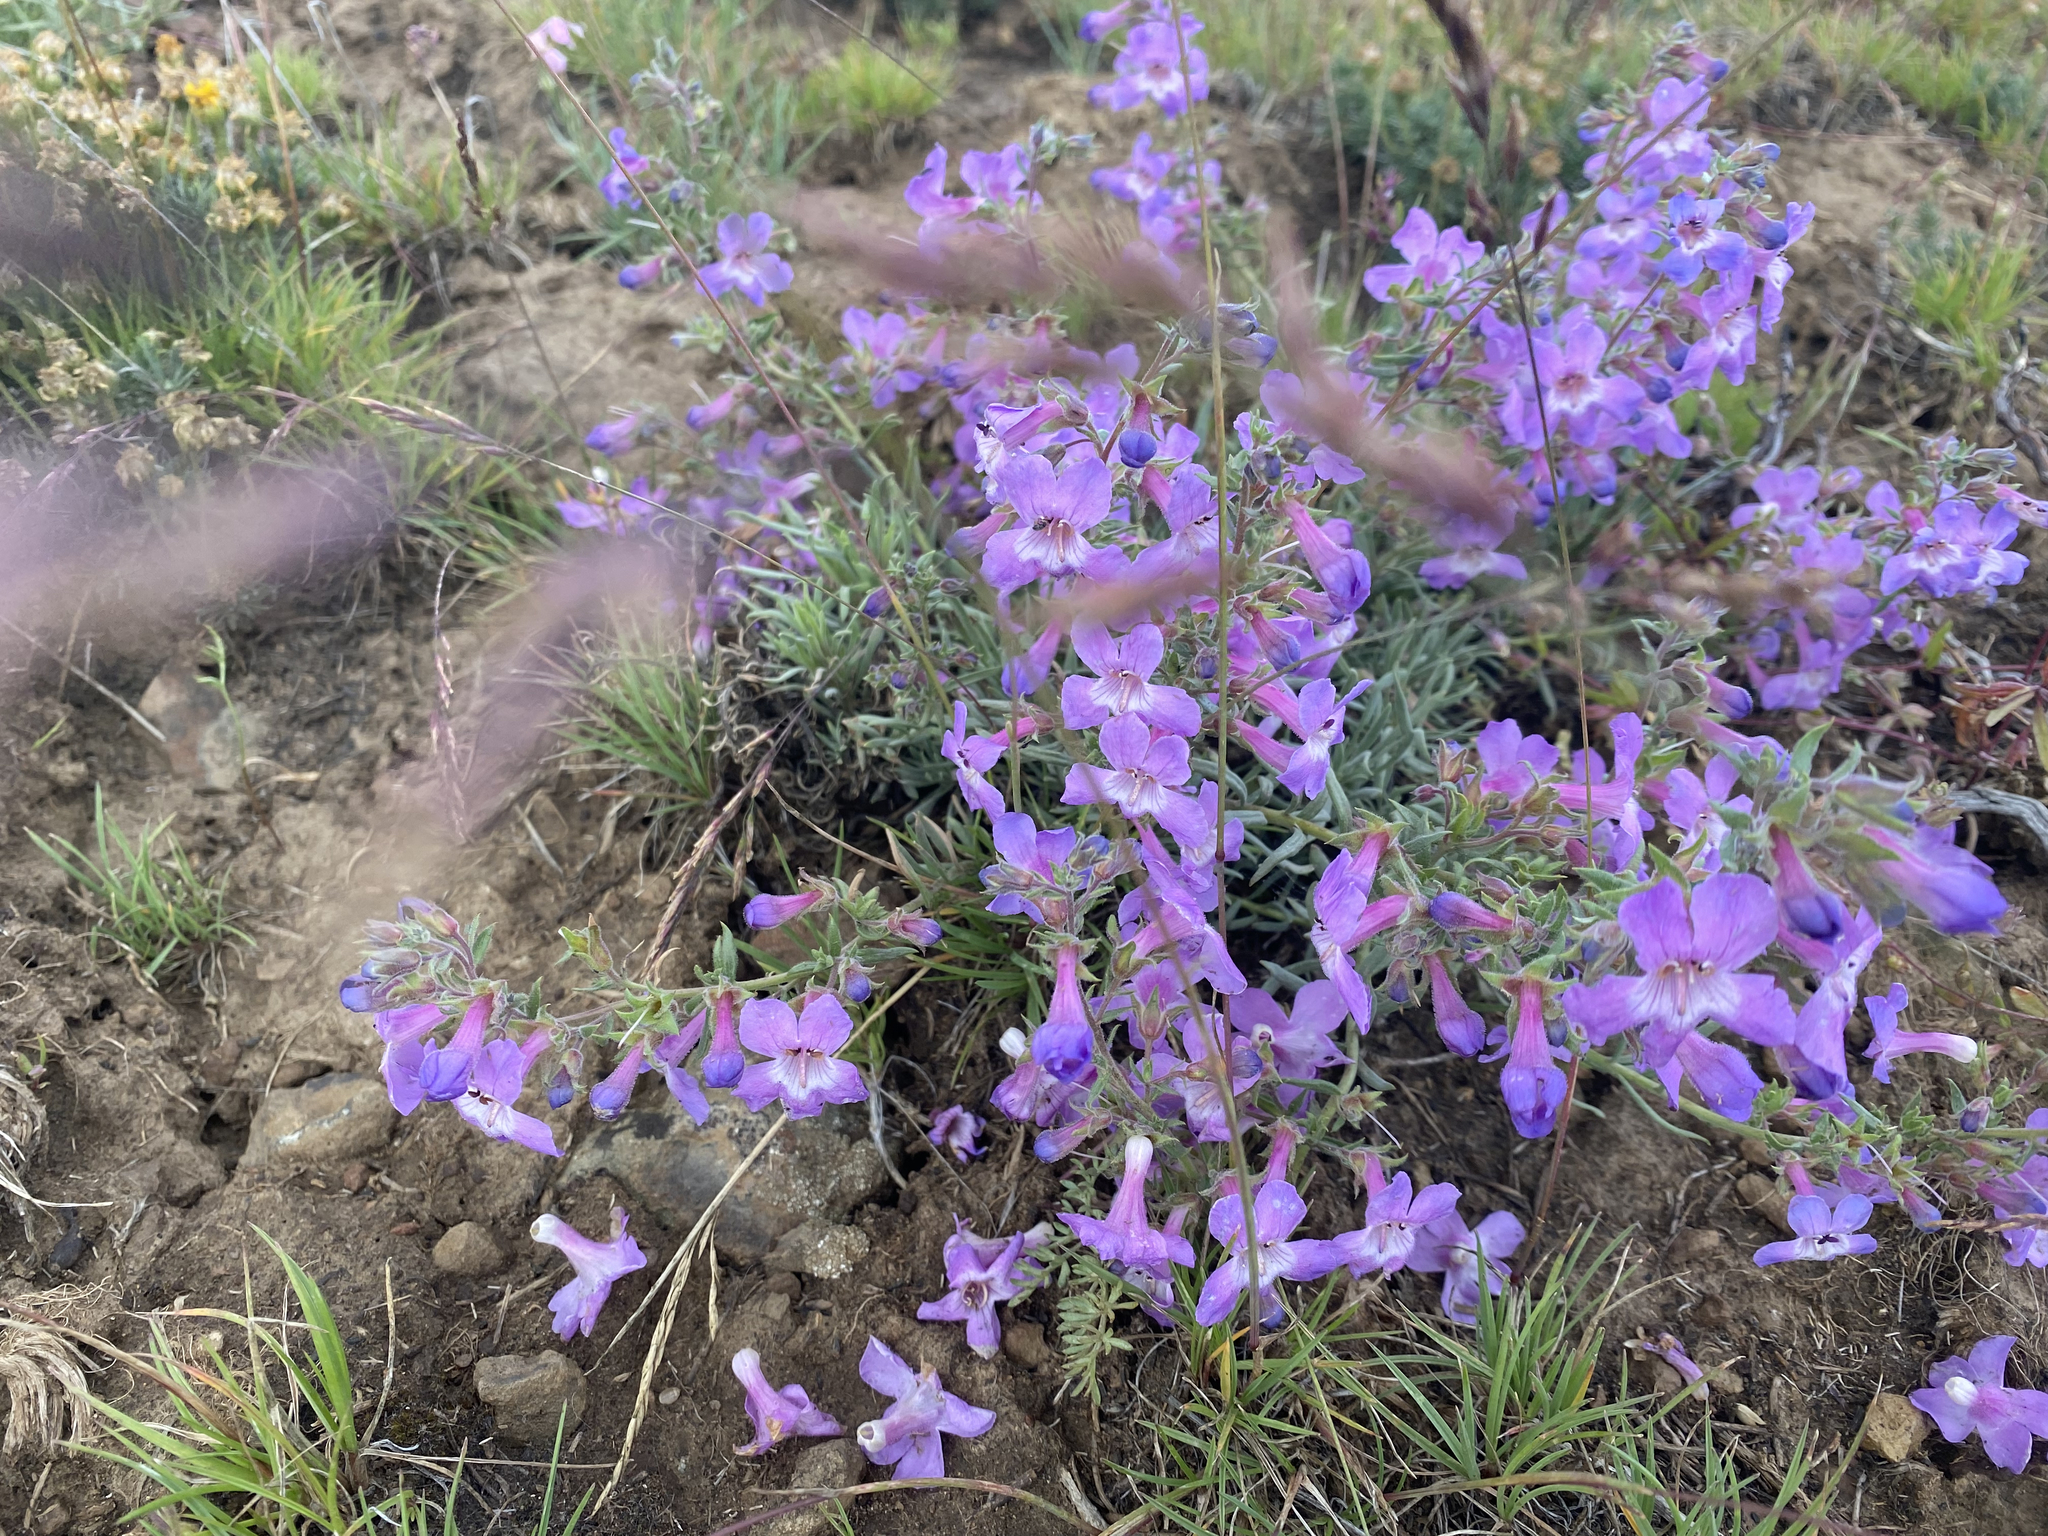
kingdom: Plantae
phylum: Tracheophyta
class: Magnoliopsida
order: Lamiales
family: Plantaginaceae
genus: Penstemon
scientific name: Penstemon gairdneri
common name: Gairdner's penstemon
